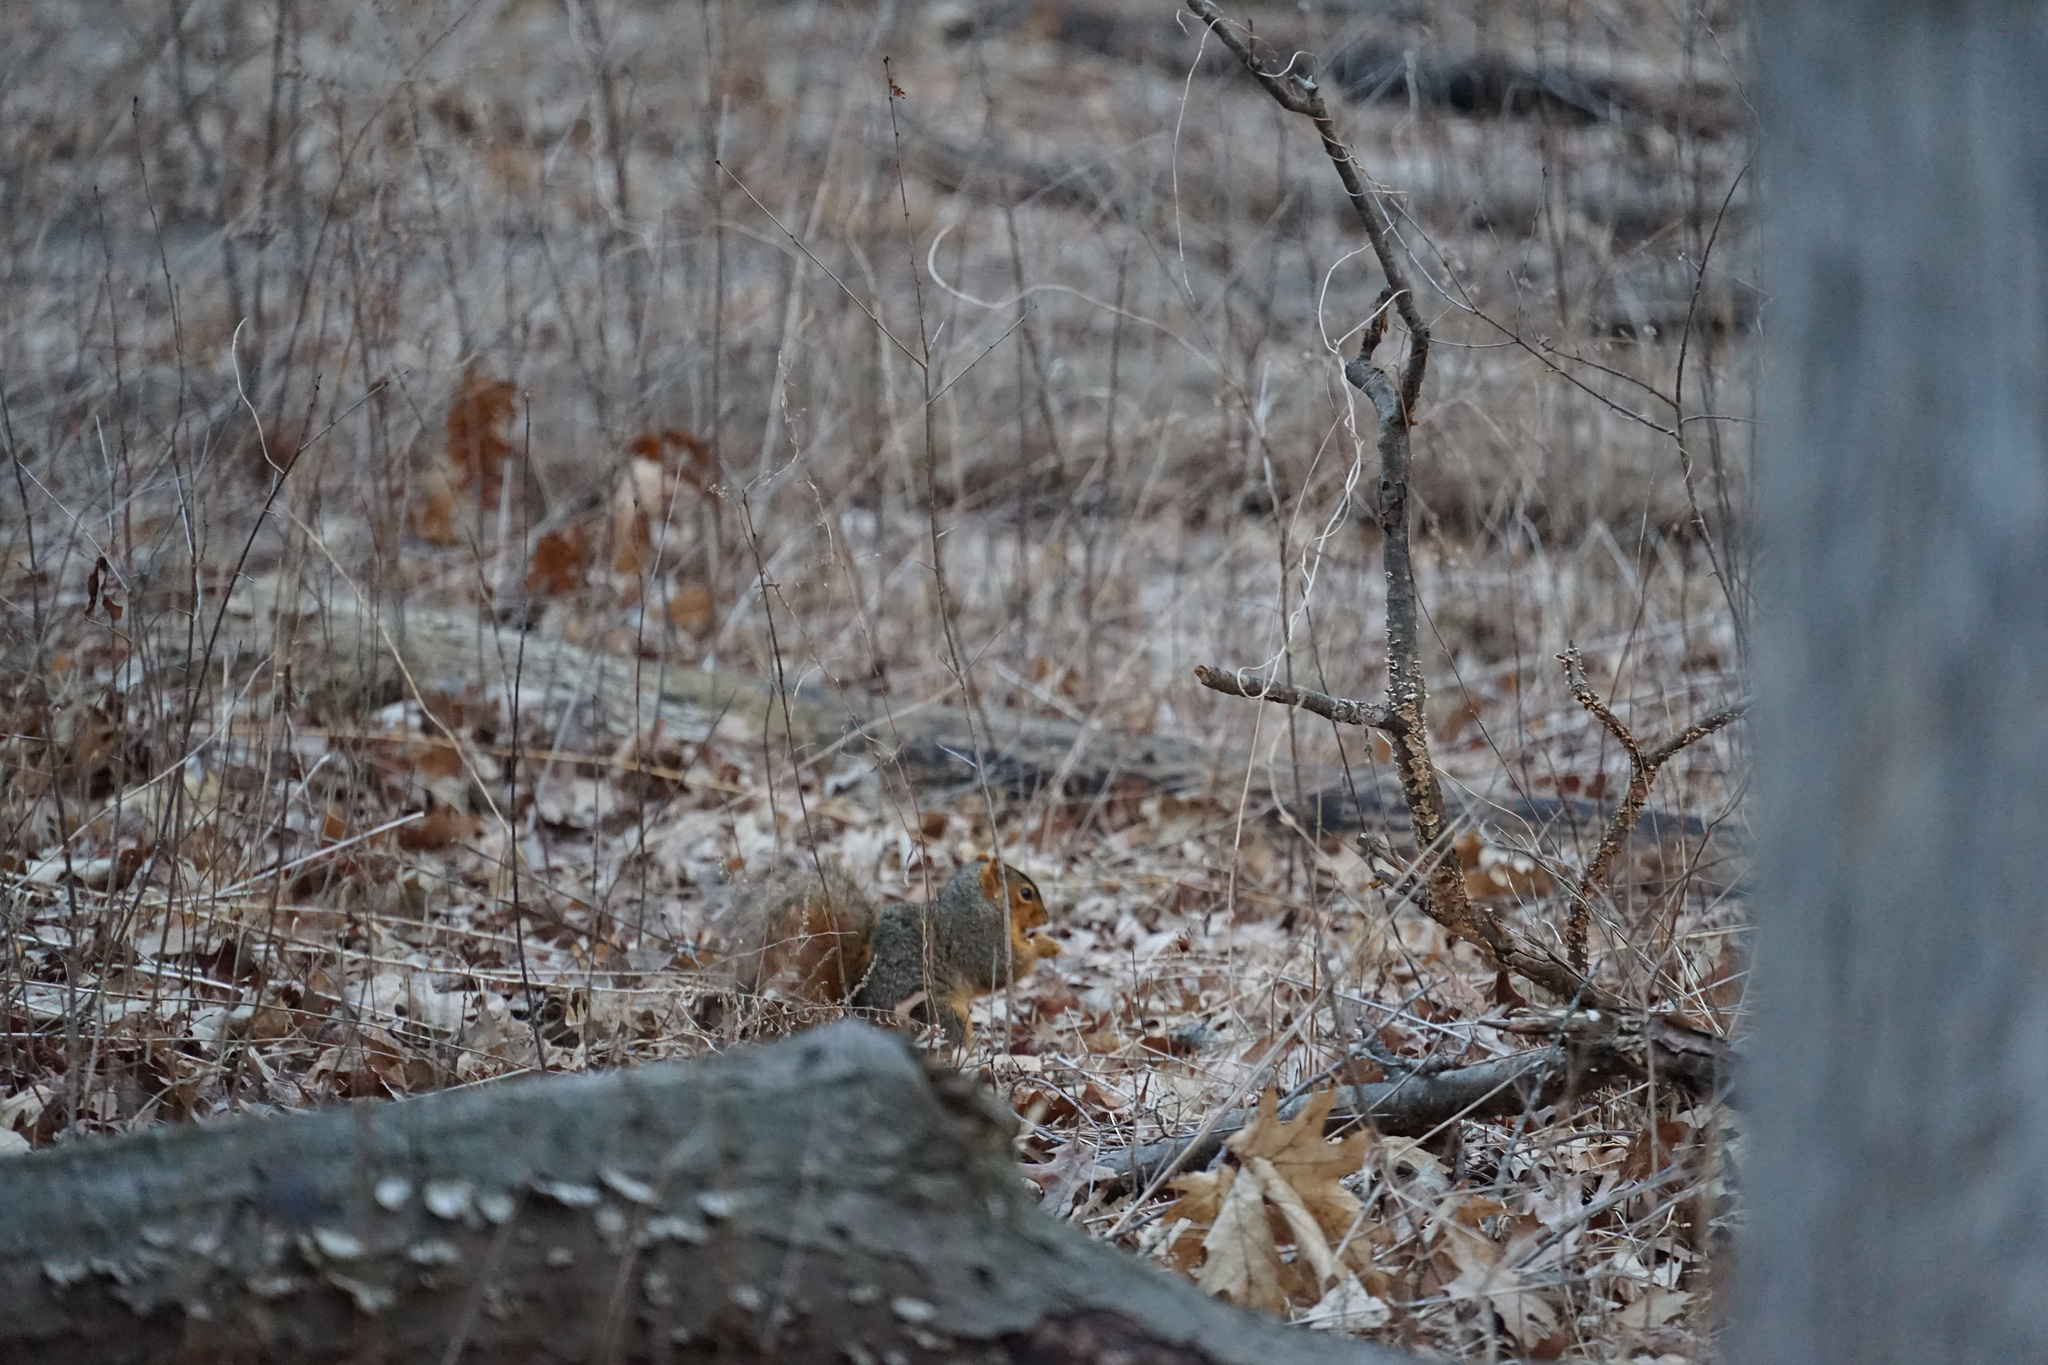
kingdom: Animalia
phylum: Chordata
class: Mammalia
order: Rodentia
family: Sciuridae
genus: Sciurus
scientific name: Sciurus niger
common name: Fox squirrel
